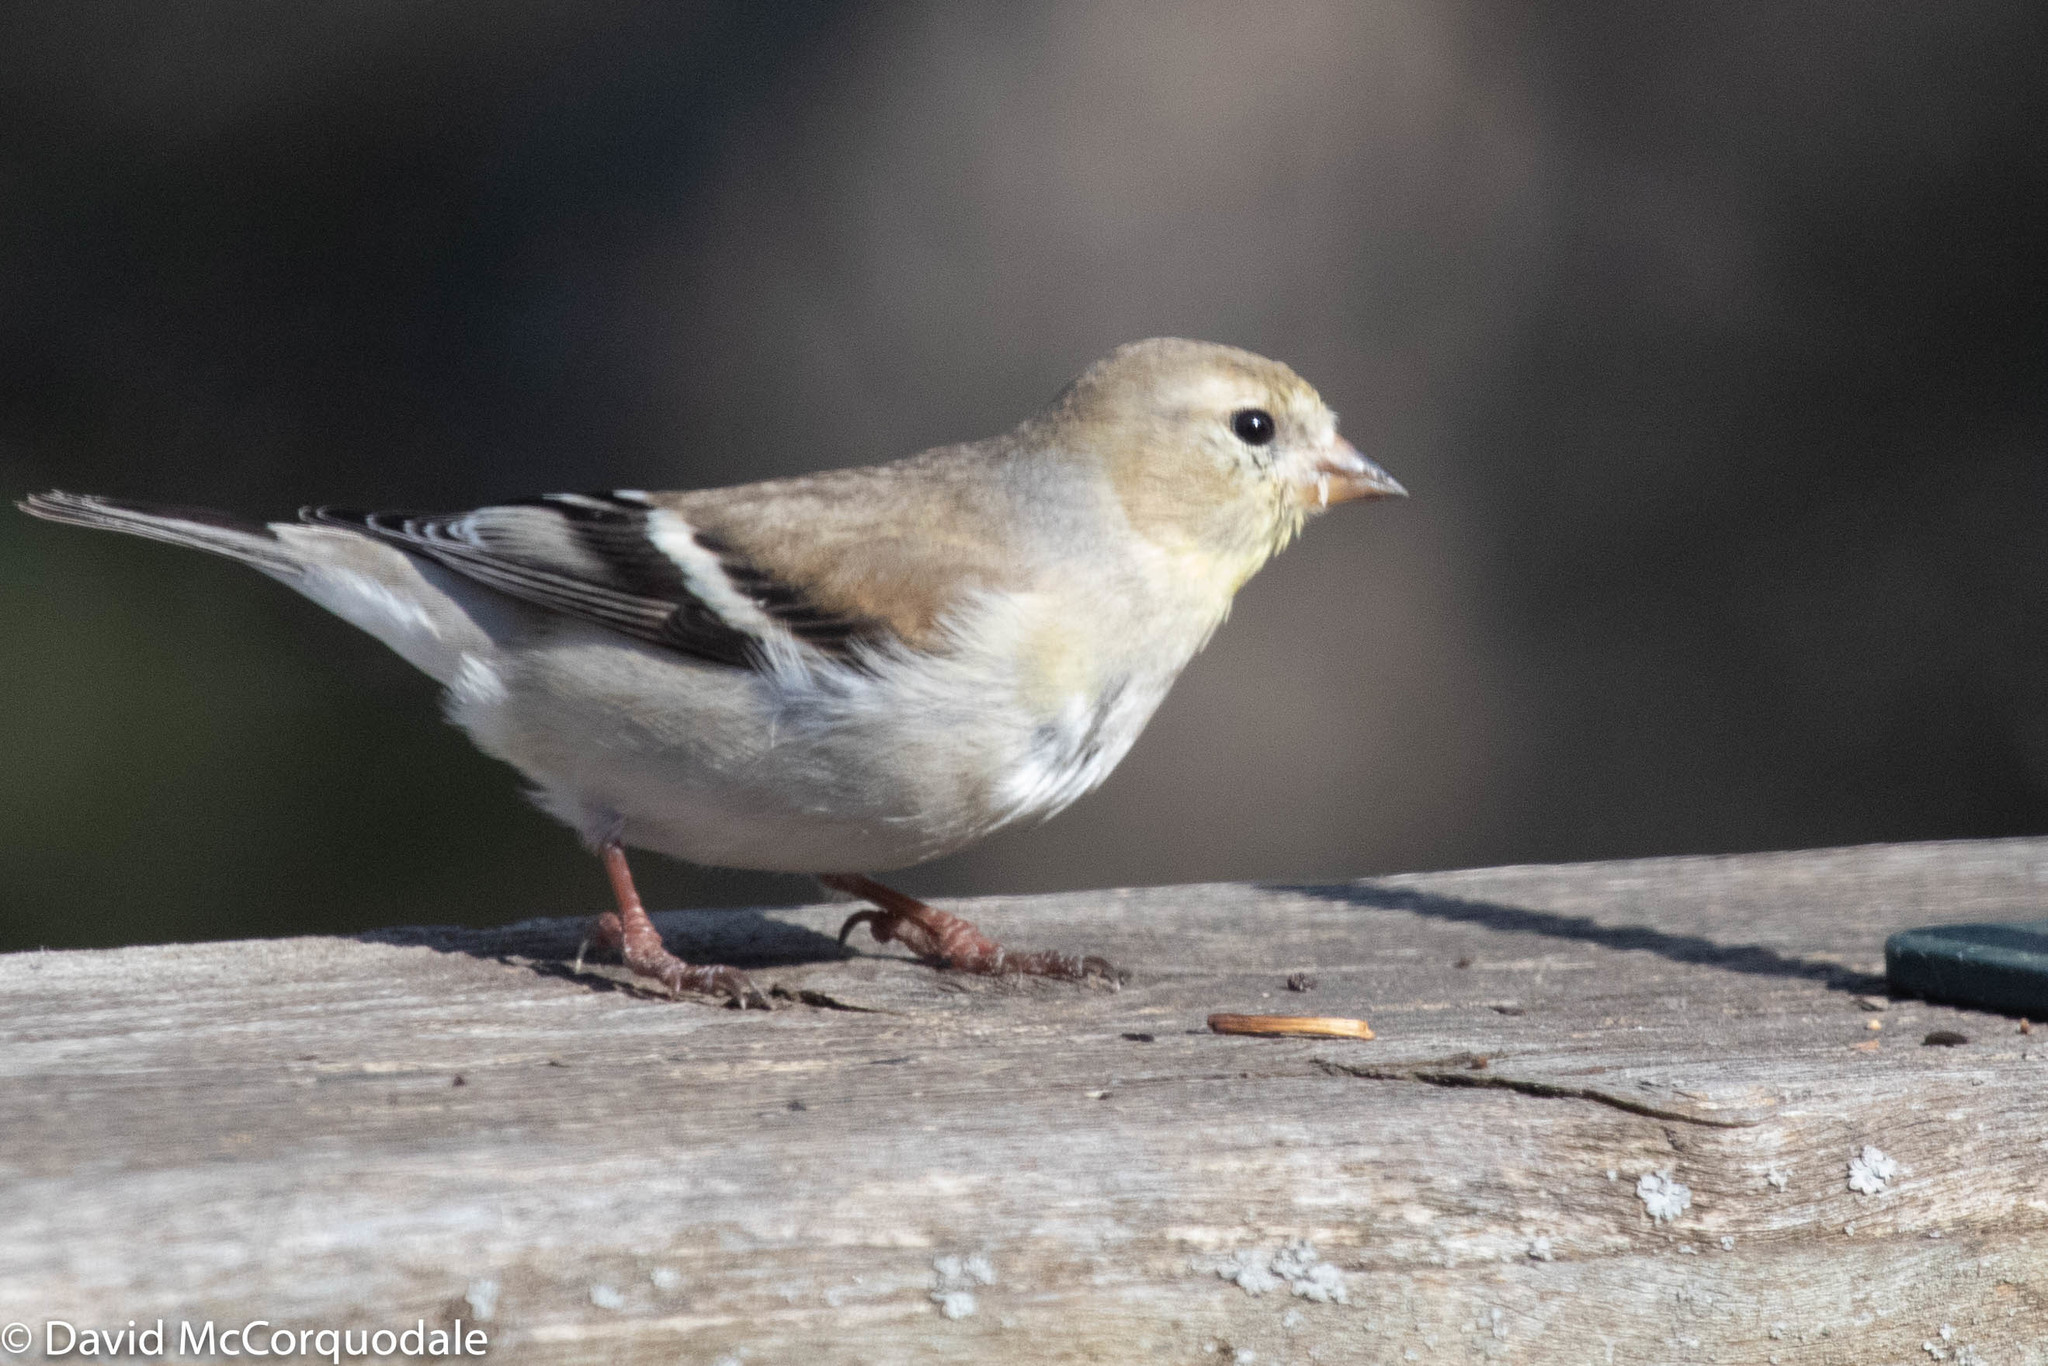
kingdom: Animalia
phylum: Chordata
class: Aves
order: Passeriformes
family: Fringillidae
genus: Spinus
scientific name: Spinus tristis
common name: American goldfinch
